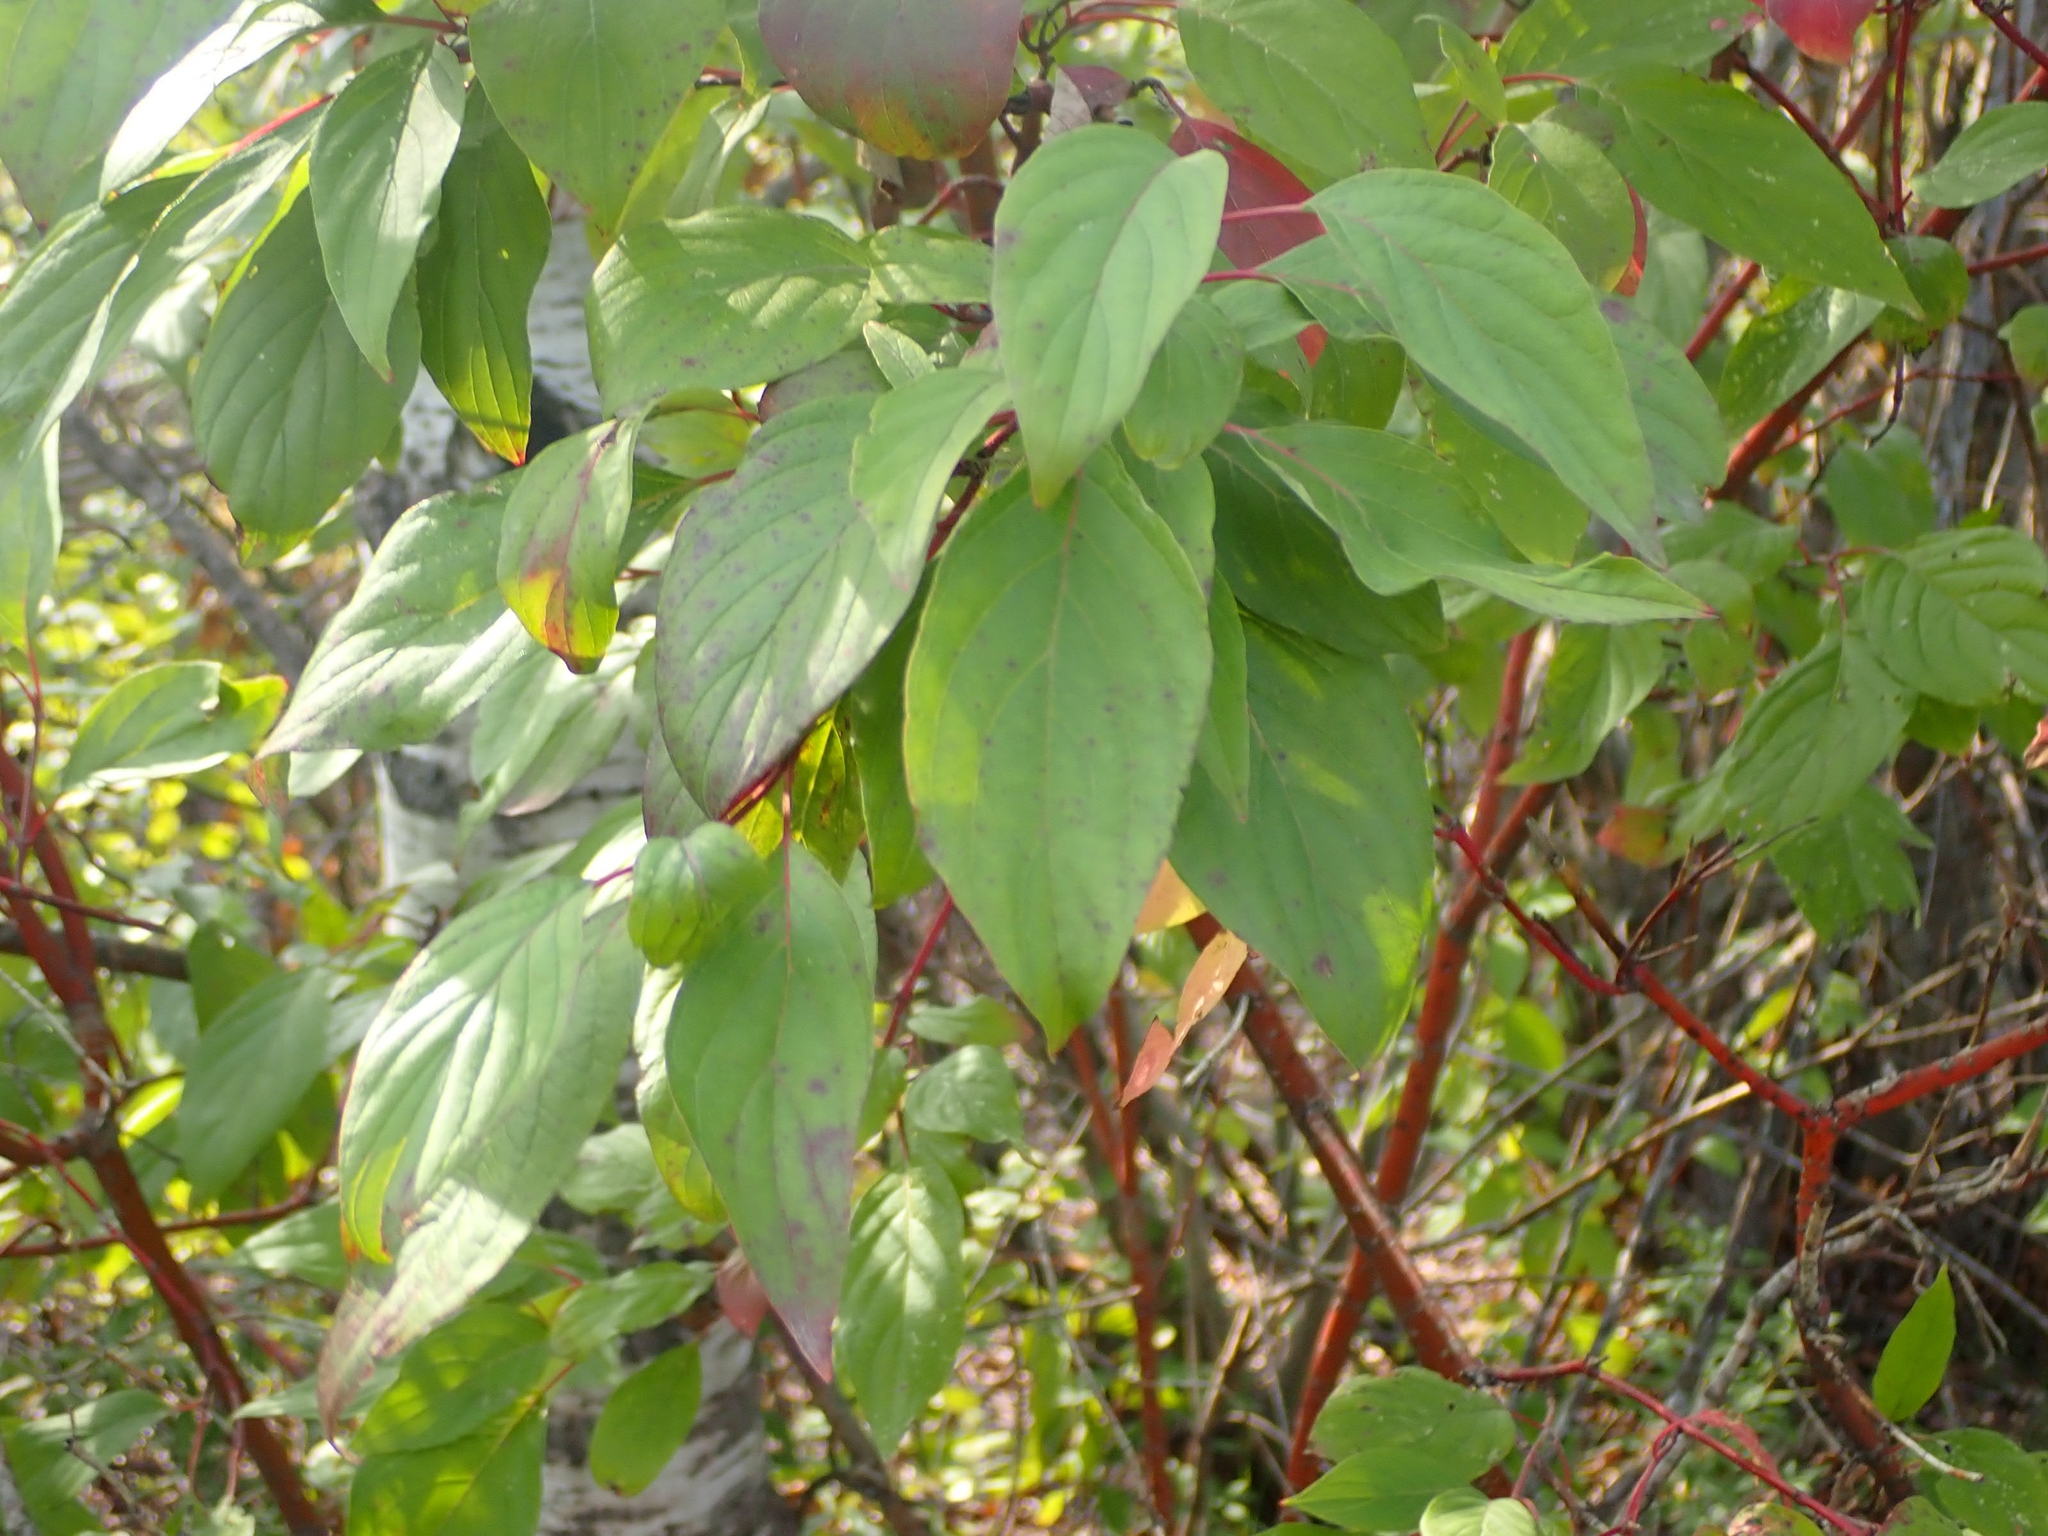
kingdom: Plantae
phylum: Tracheophyta
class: Magnoliopsida
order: Cornales
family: Cornaceae
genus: Cornus
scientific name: Cornus sericea
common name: Red-osier dogwood
